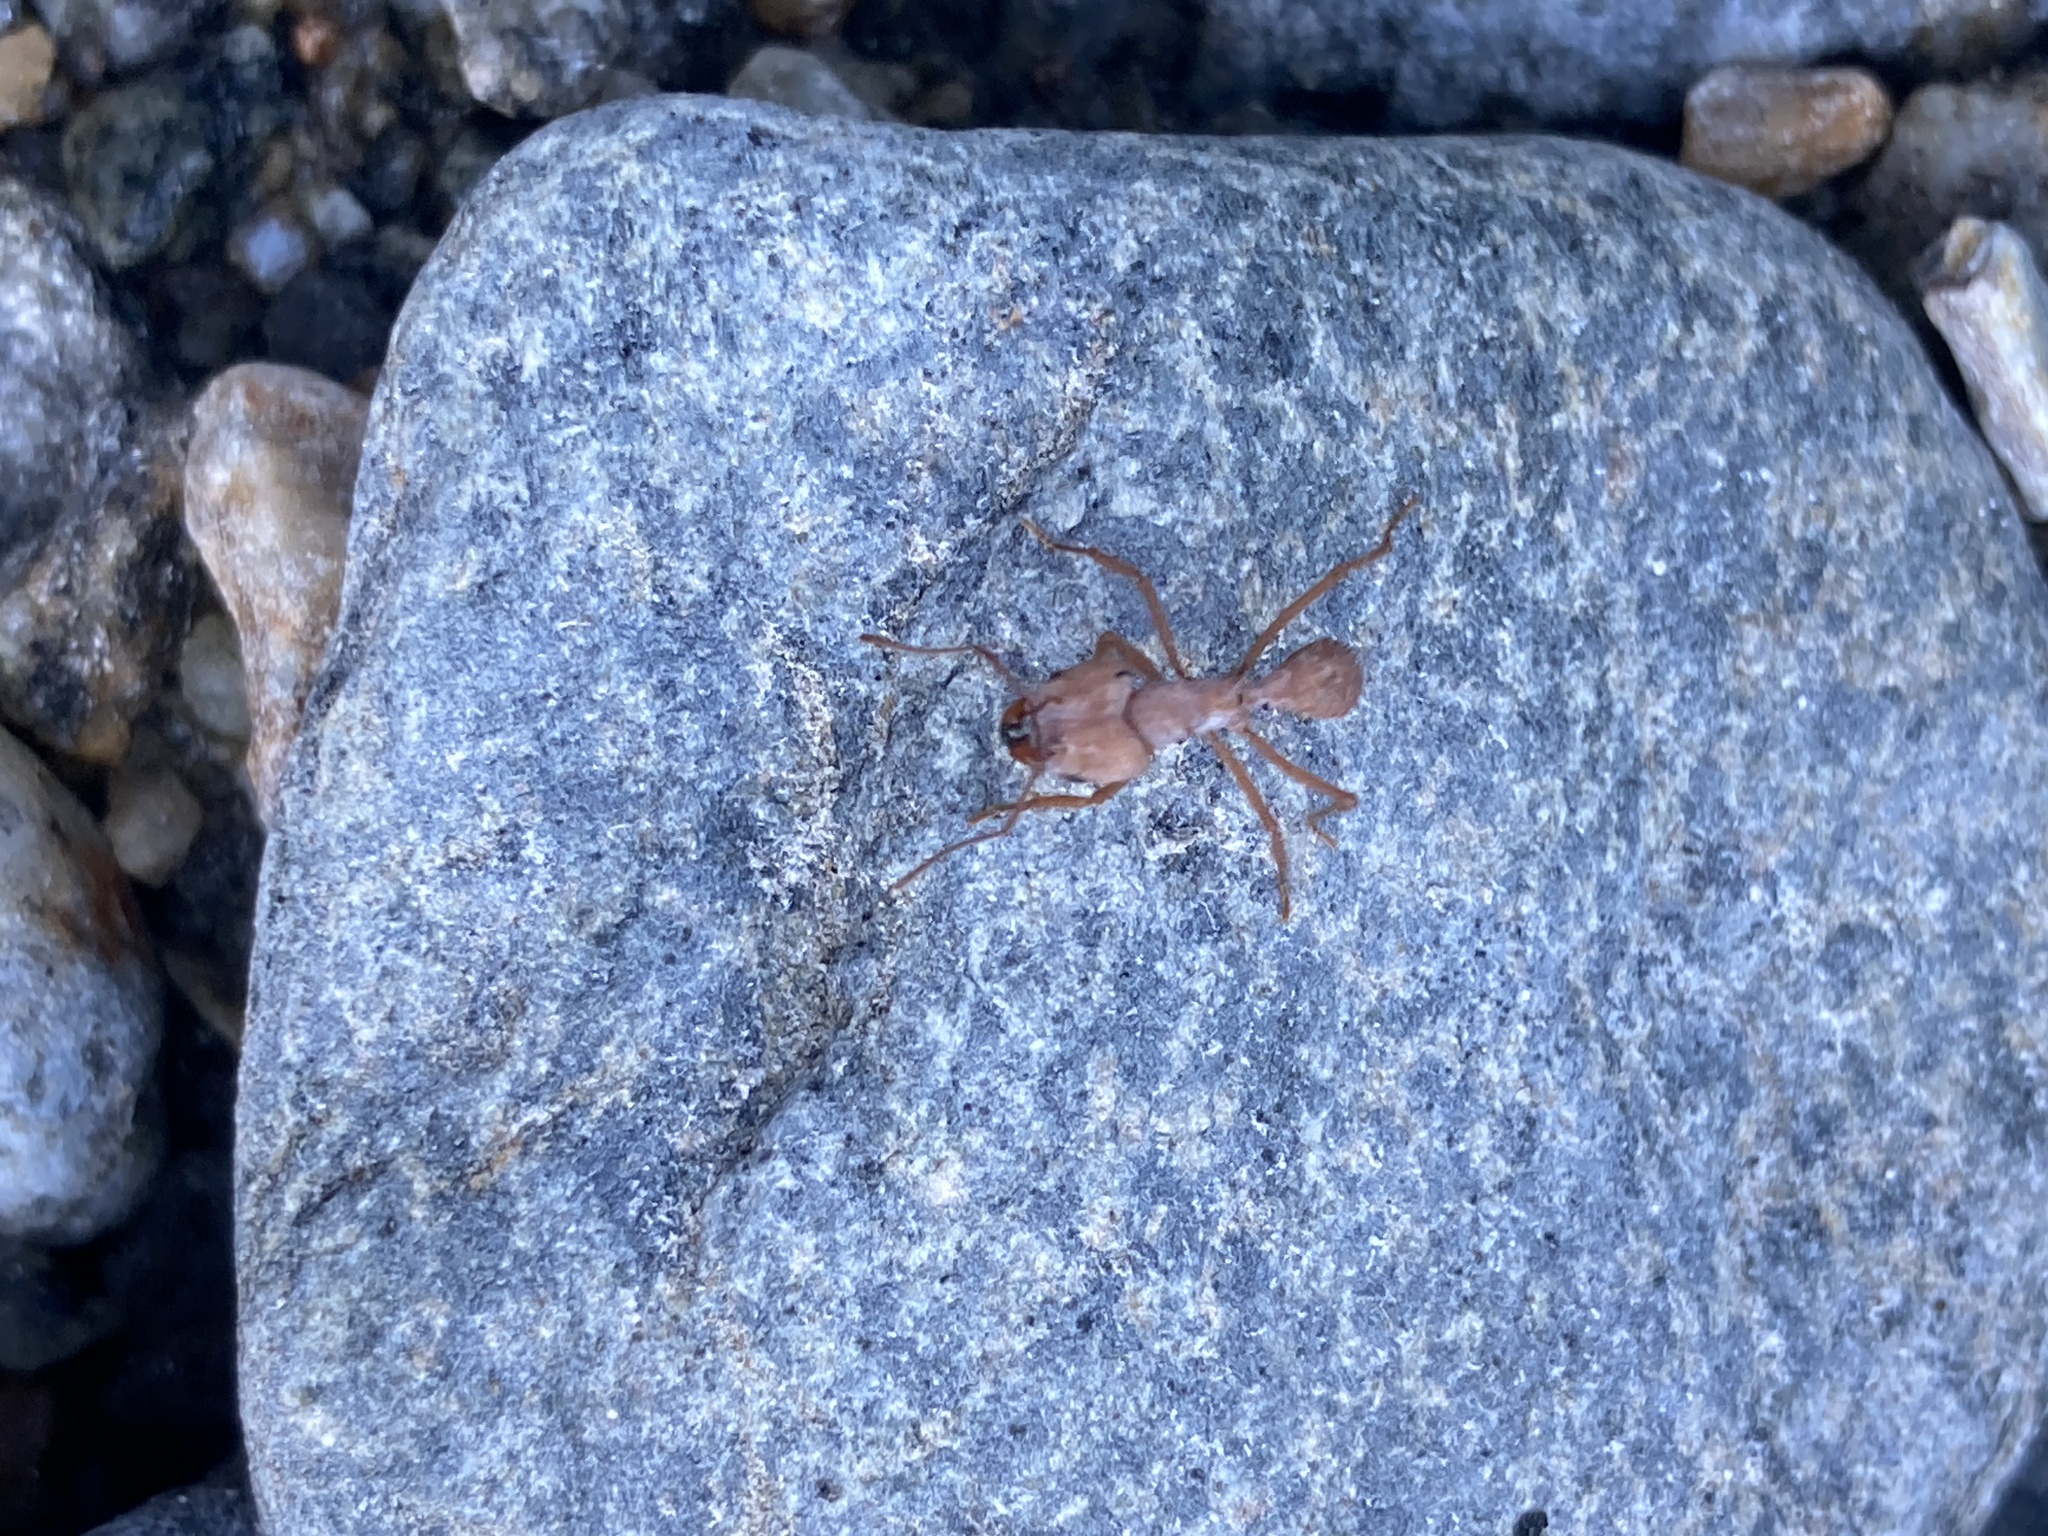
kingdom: Animalia
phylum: Arthropoda
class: Insecta
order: Hymenoptera
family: Formicidae
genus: Acromyrmex
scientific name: Acromyrmex fracticornis
